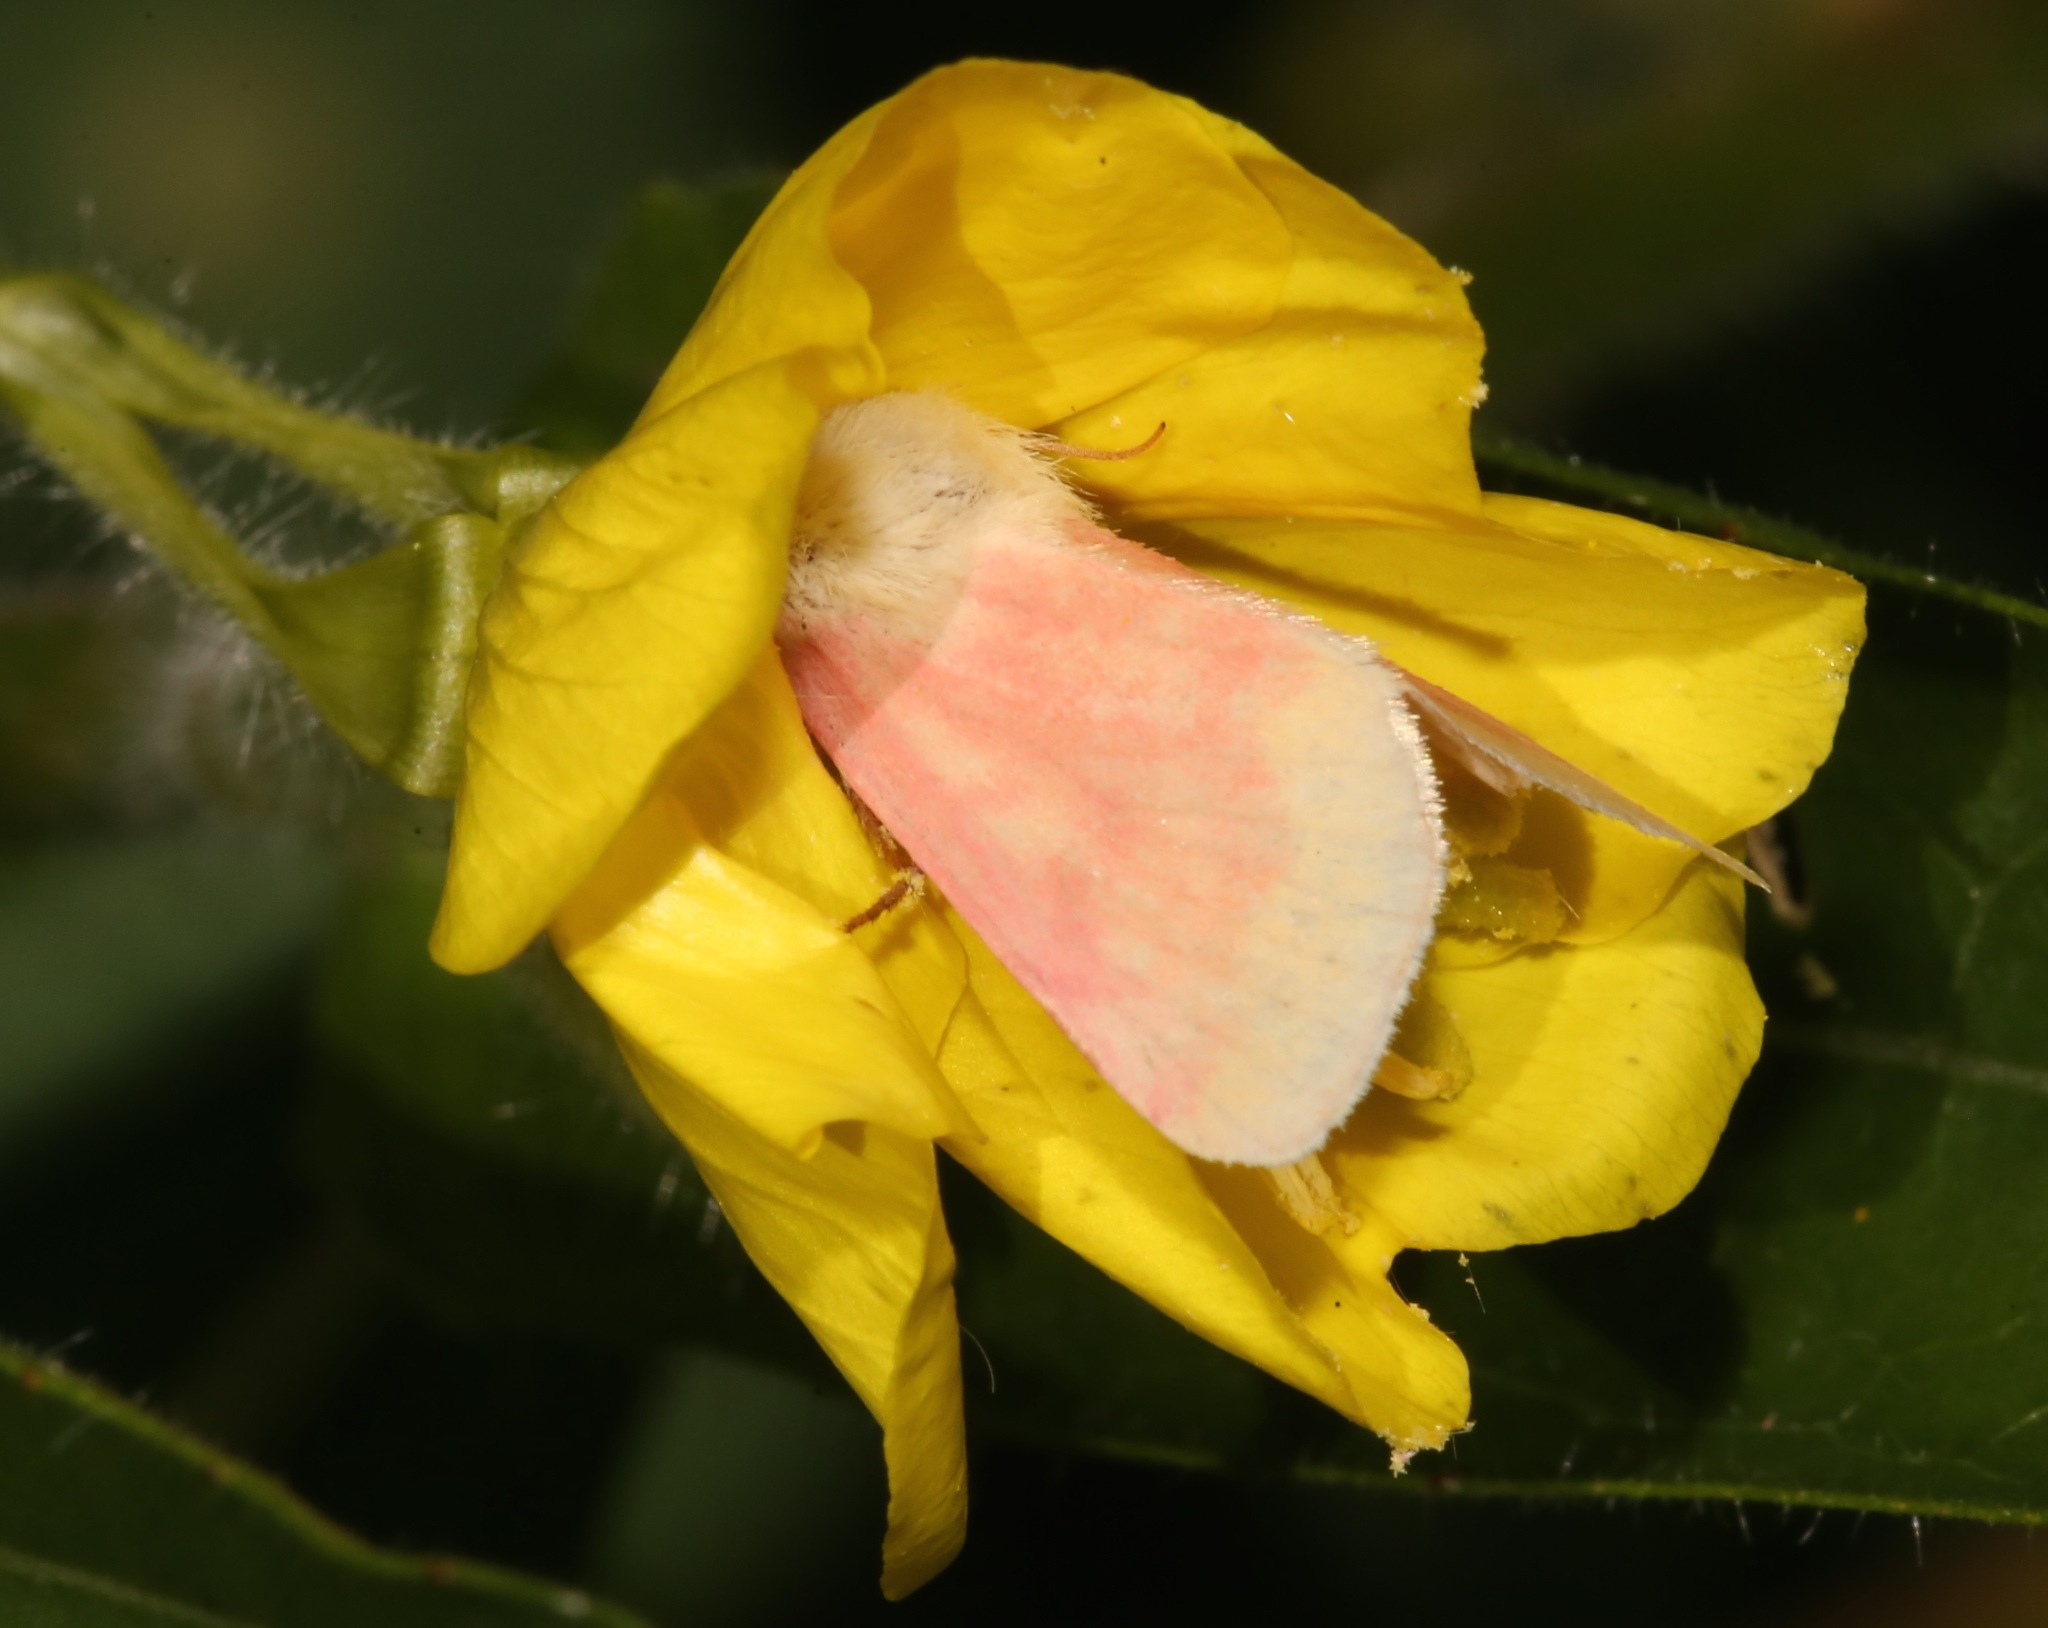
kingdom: Animalia
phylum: Arthropoda
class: Insecta
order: Lepidoptera
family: Noctuidae
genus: Schinia
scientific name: Schinia florida
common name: Primrose moth
